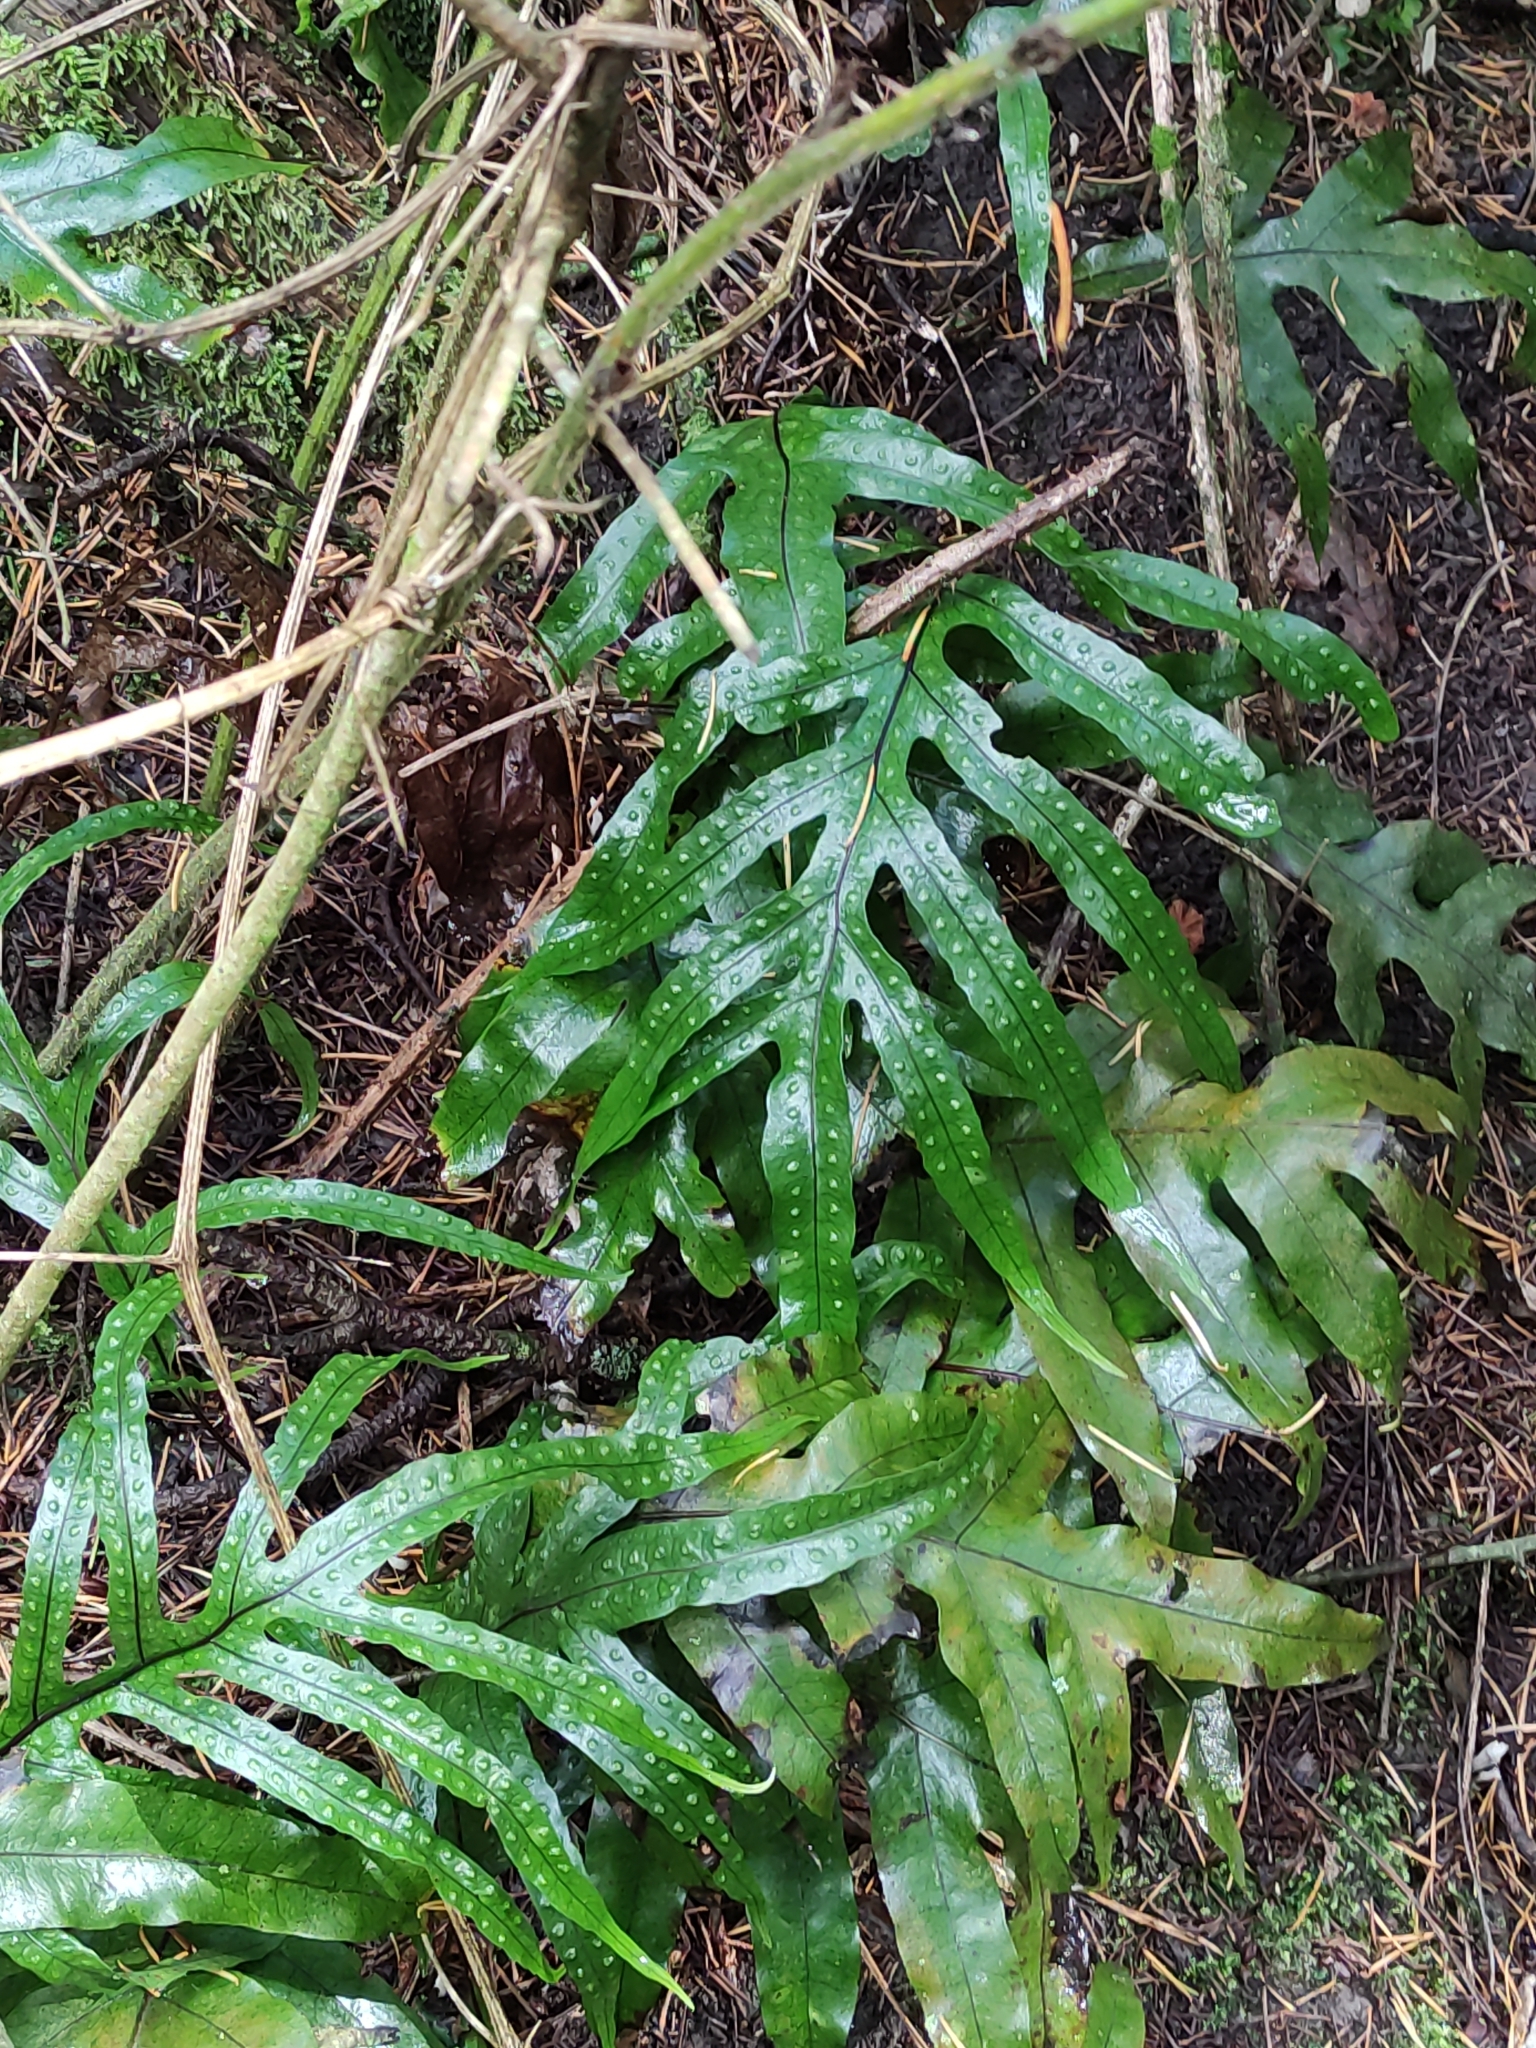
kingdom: Plantae
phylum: Tracheophyta
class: Polypodiopsida
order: Polypodiales
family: Polypodiaceae
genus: Lecanopteris
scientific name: Lecanopteris pustulata
